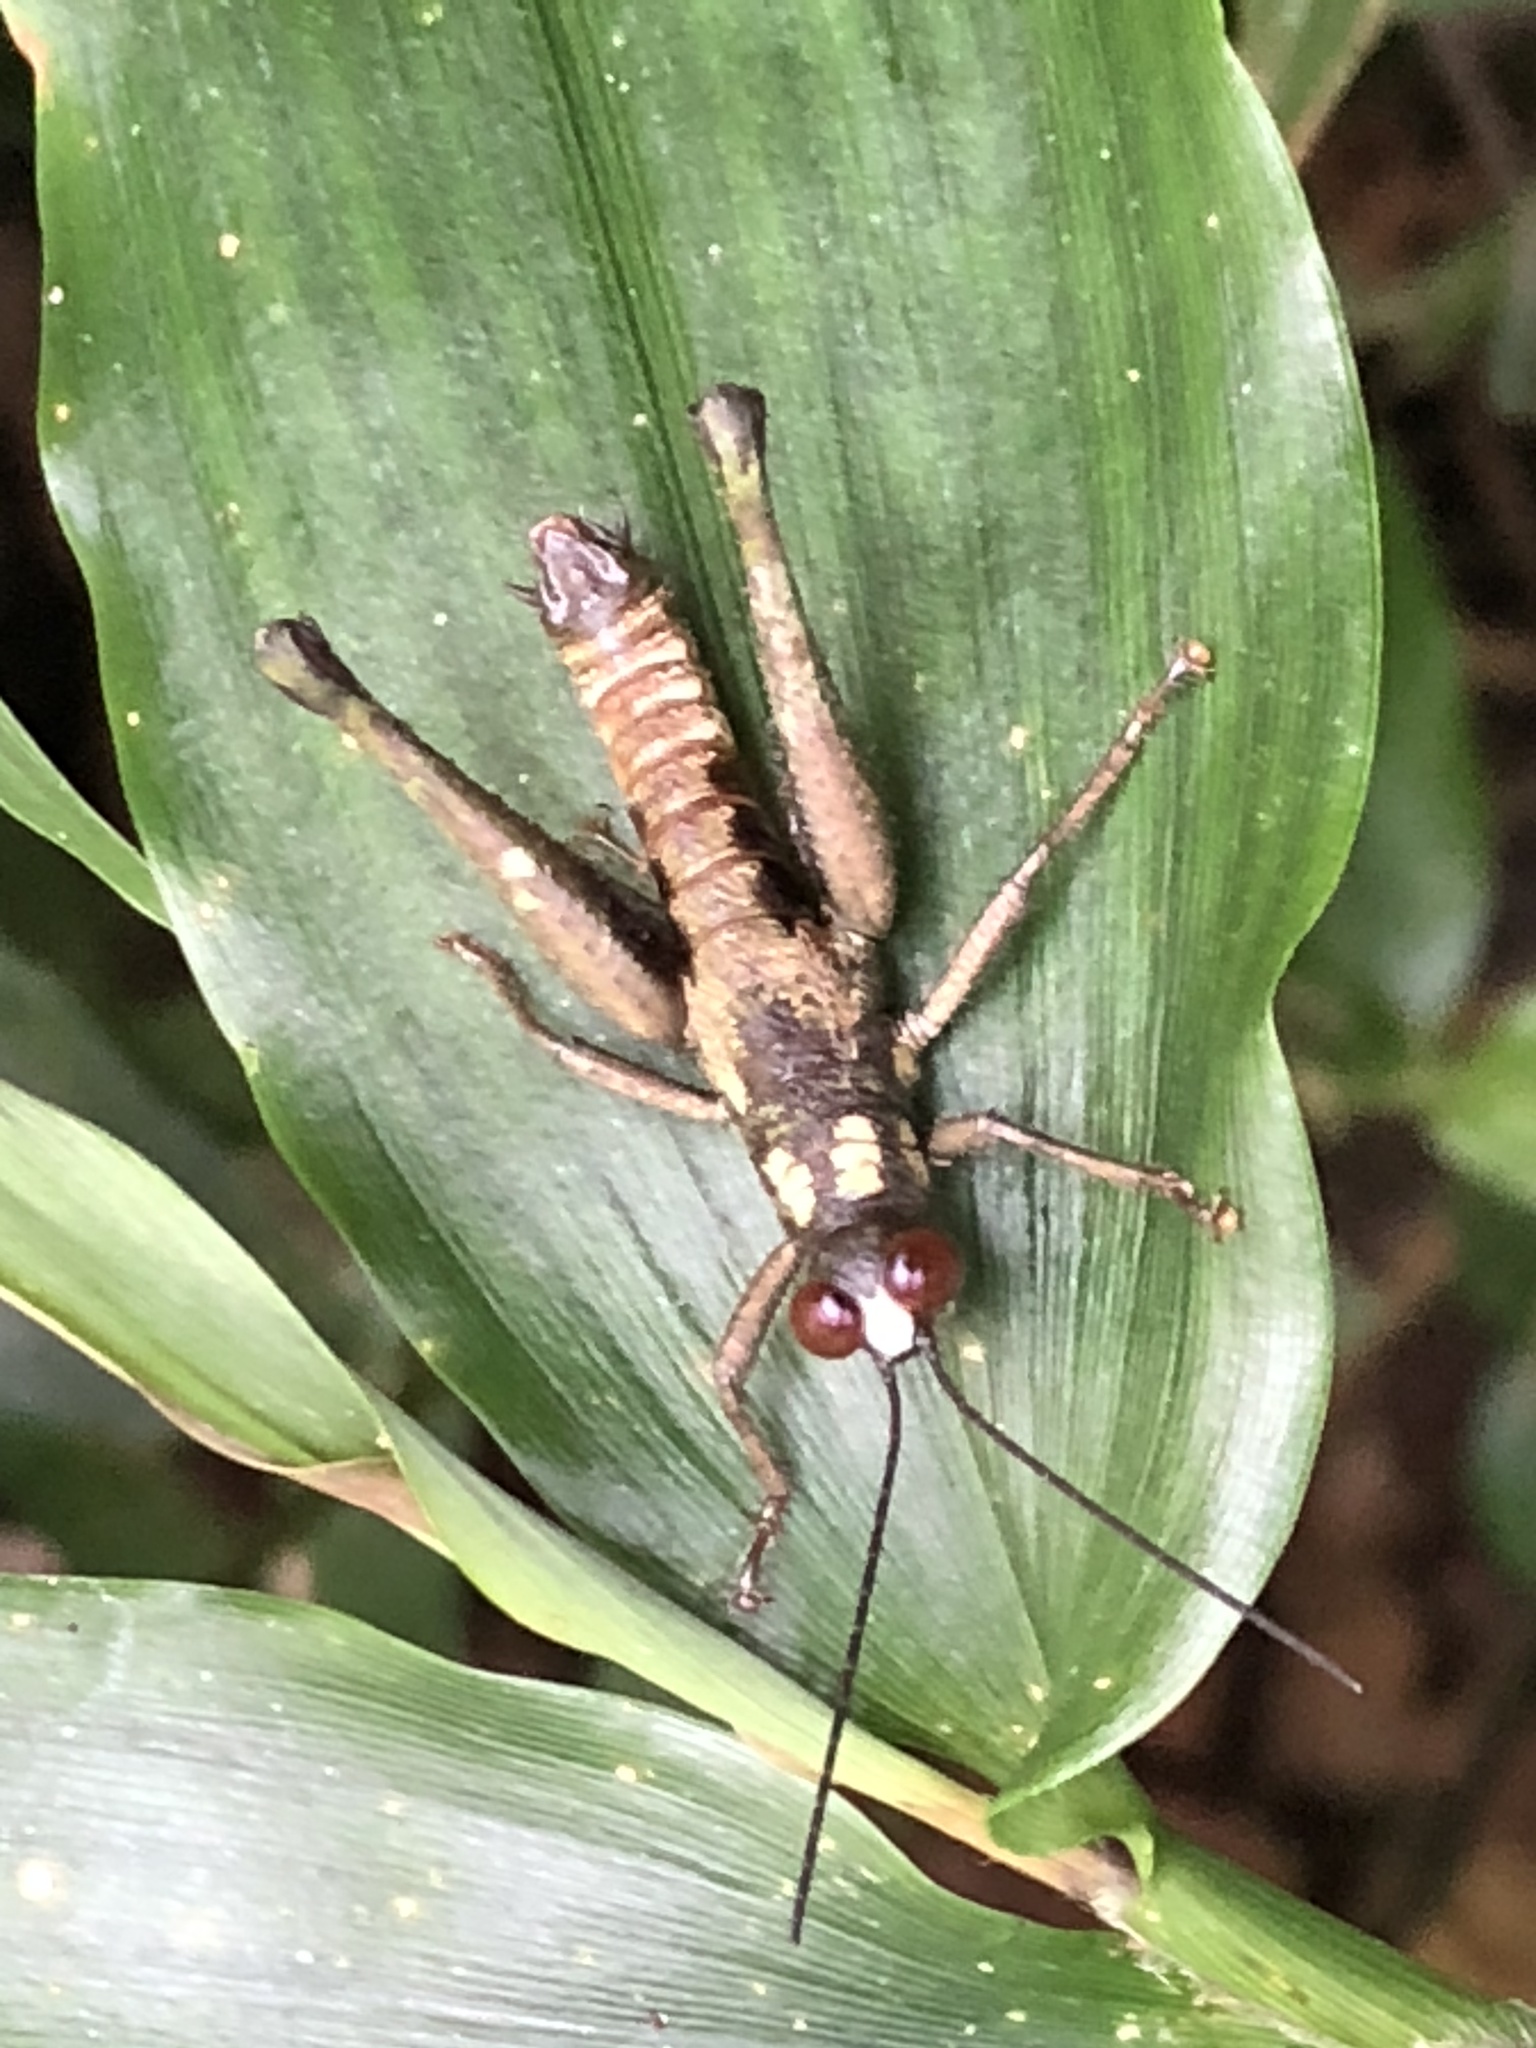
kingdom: Animalia
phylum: Arthropoda
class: Insecta
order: Orthoptera
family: Acrididae
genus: Stenelutracris
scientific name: Stenelutracris lignicola
